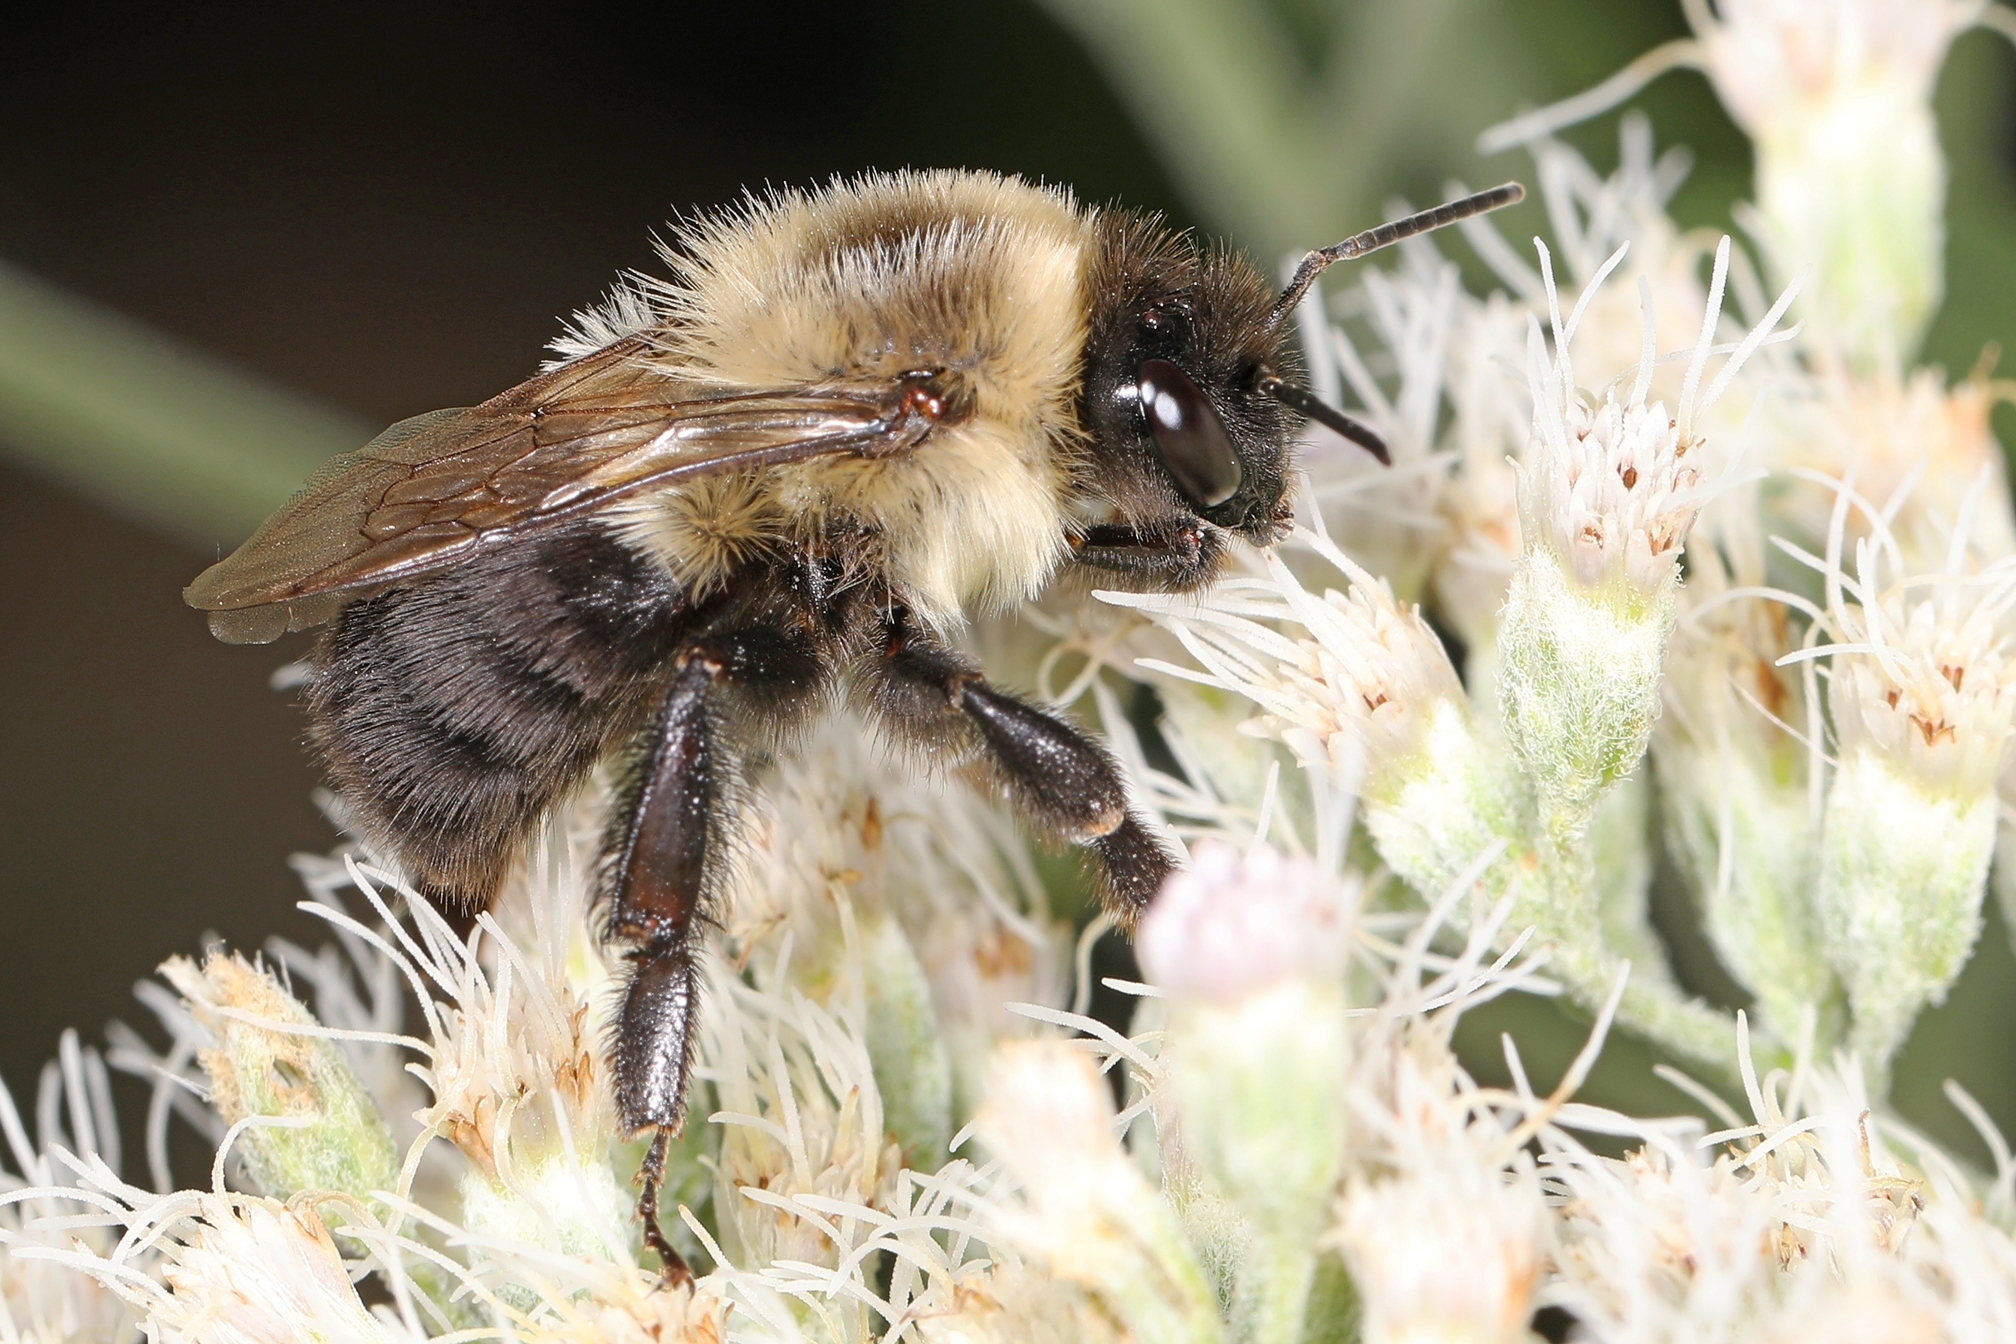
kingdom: Animalia
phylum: Arthropoda
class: Insecta
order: Hymenoptera
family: Apidae
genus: Bombus
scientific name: Bombus impatiens
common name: Common eastern bumble bee
